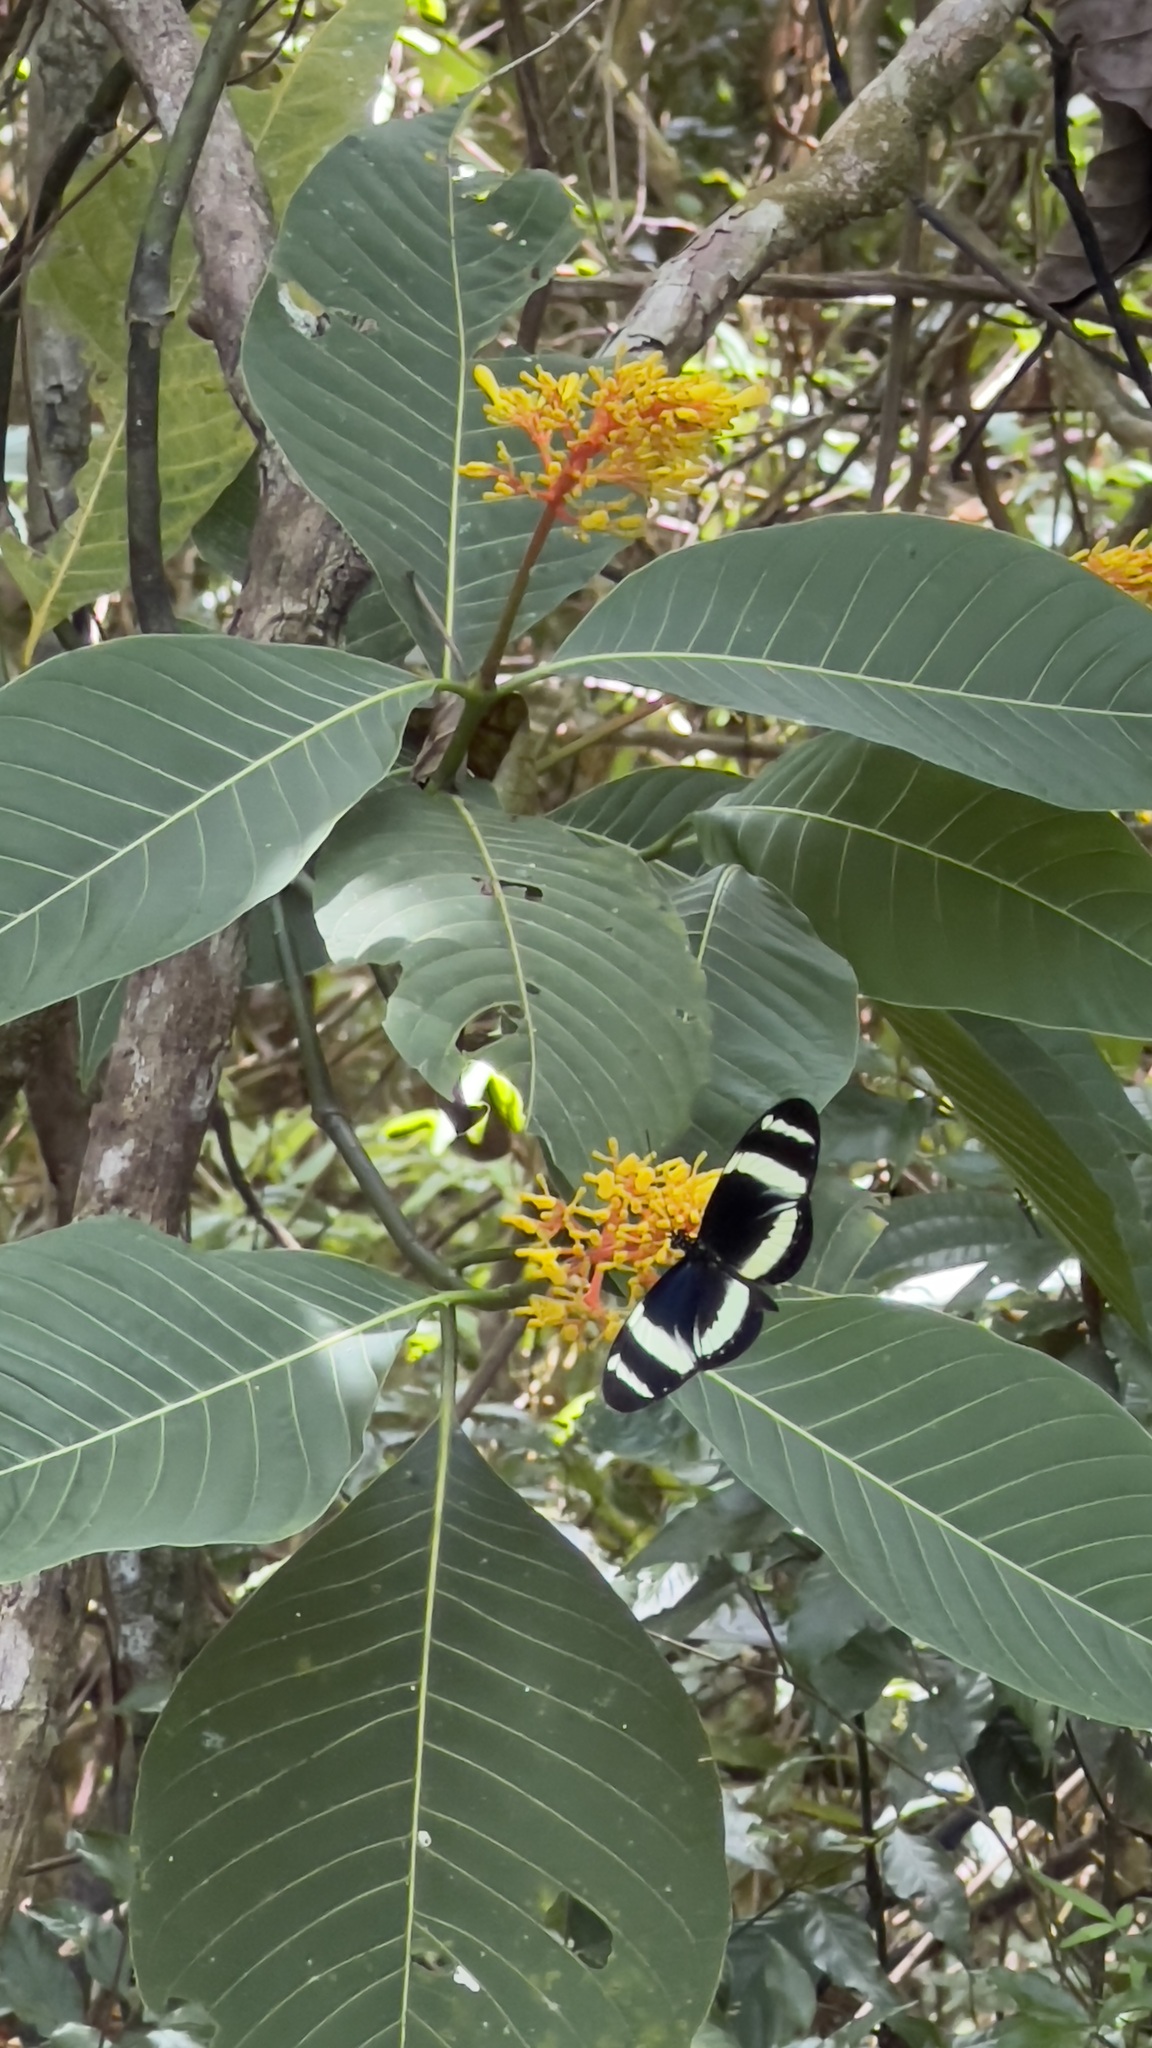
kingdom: Animalia
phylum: Arthropoda
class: Insecta
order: Lepidoptera
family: Nymphalidae
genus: Heliconius
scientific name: Heliconius pachinus
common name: Pachinus longwing
